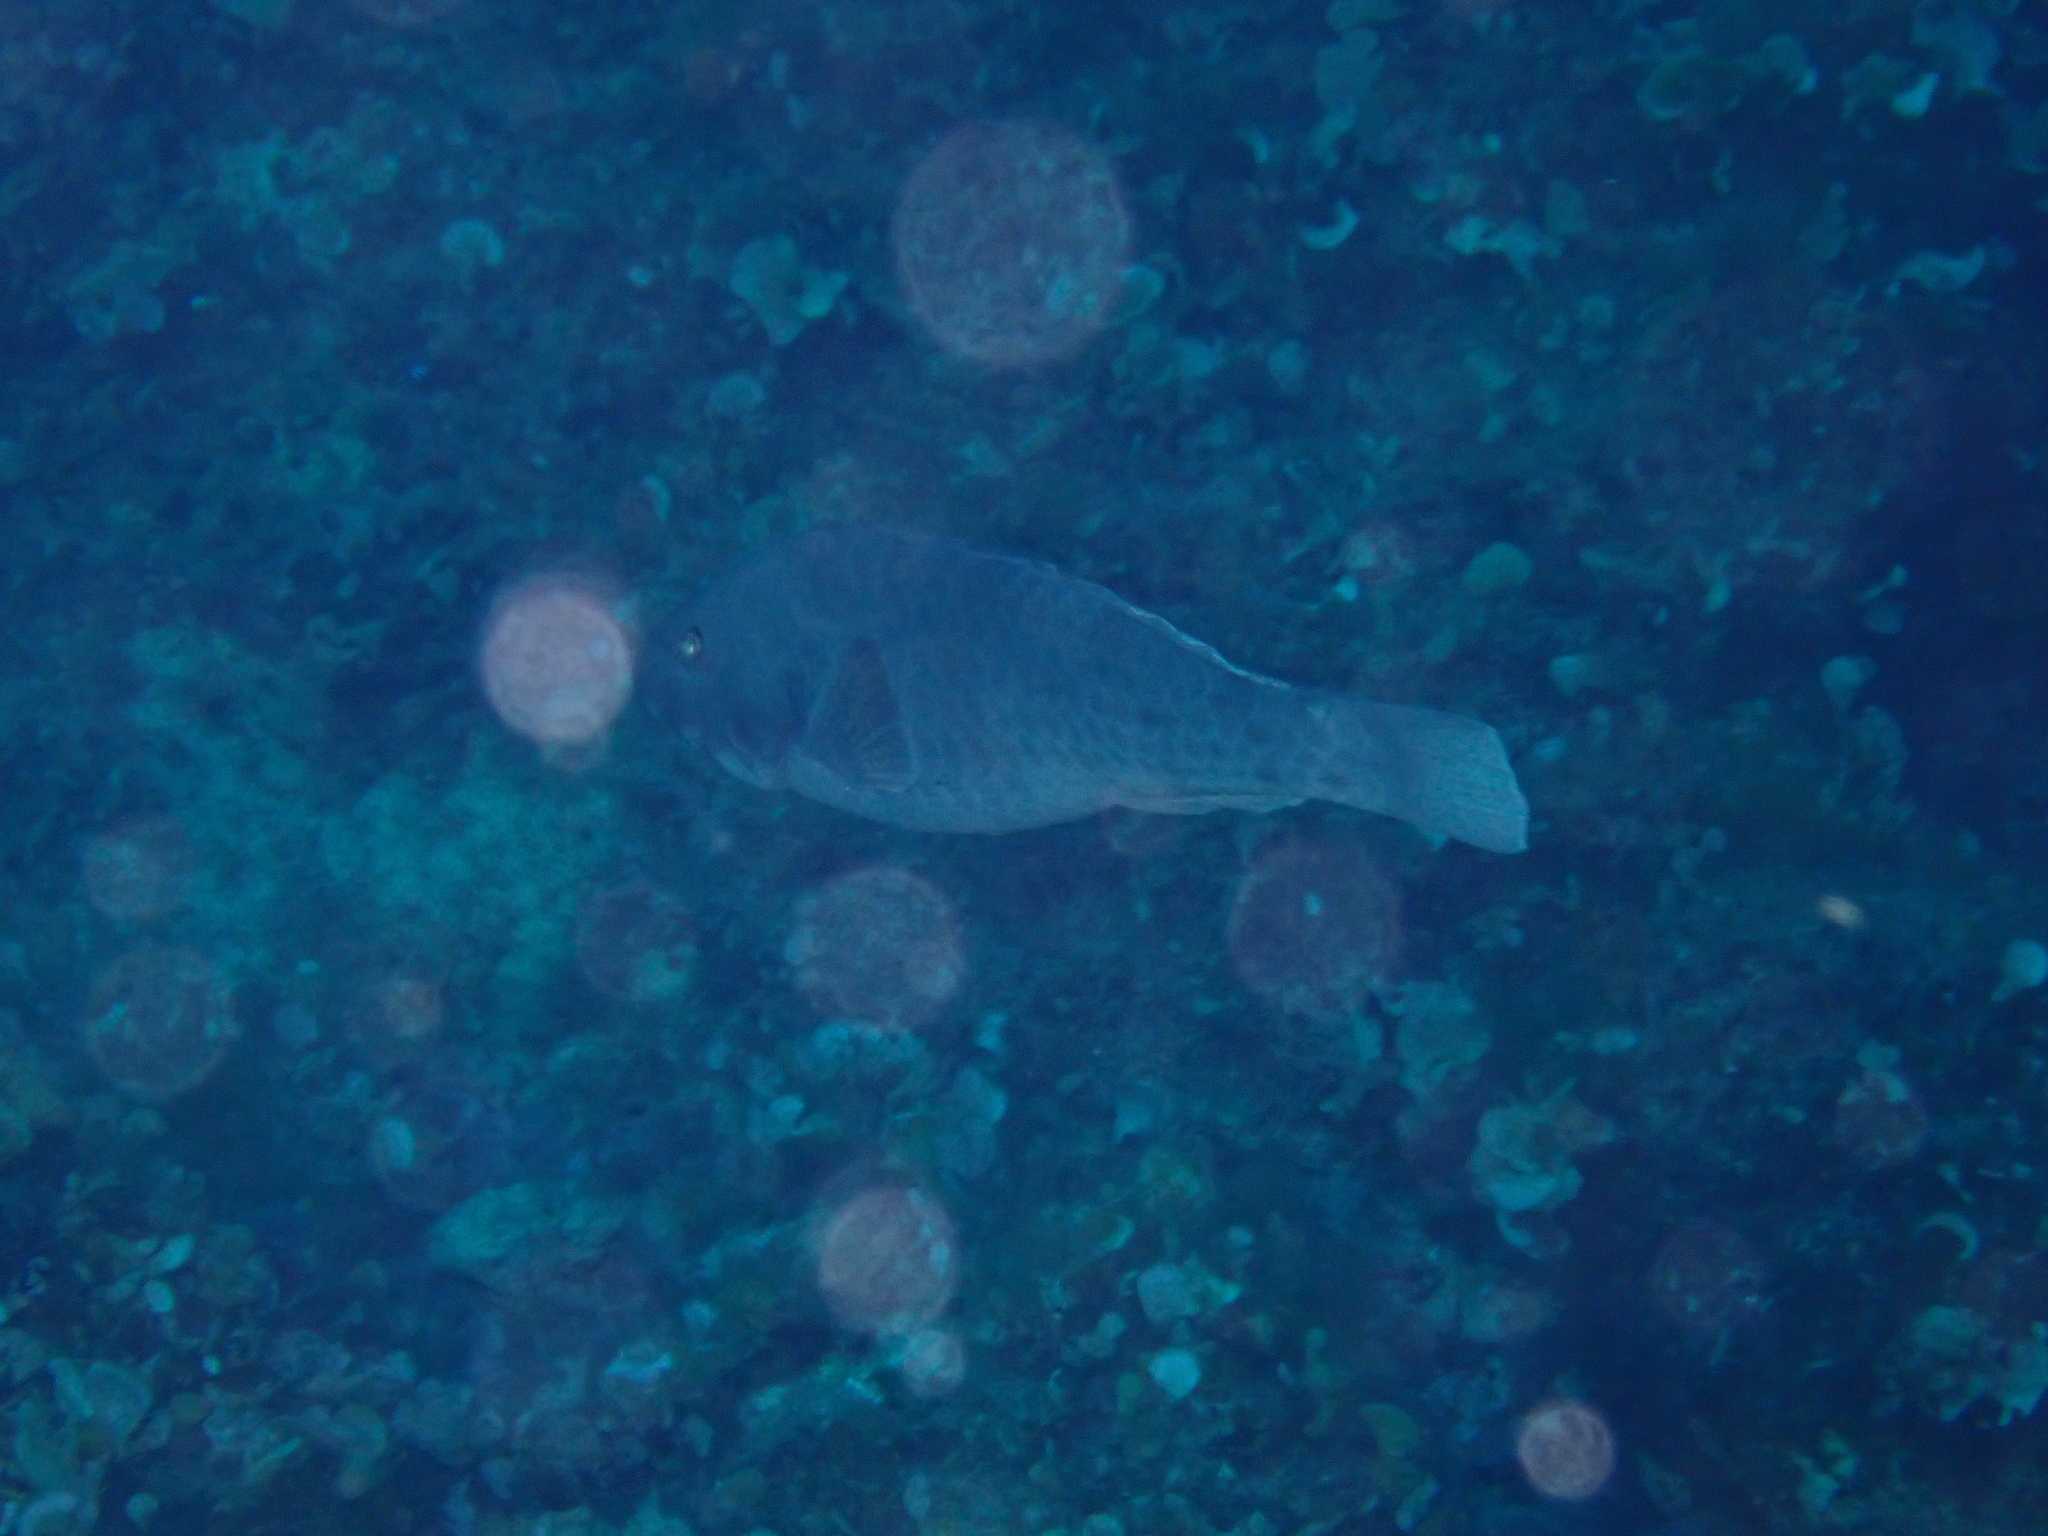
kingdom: Animalia
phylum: Chordata
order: Perciformes
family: Scaridae
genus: Sparisoma
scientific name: Sparisoma cretense
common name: Parrotfish
